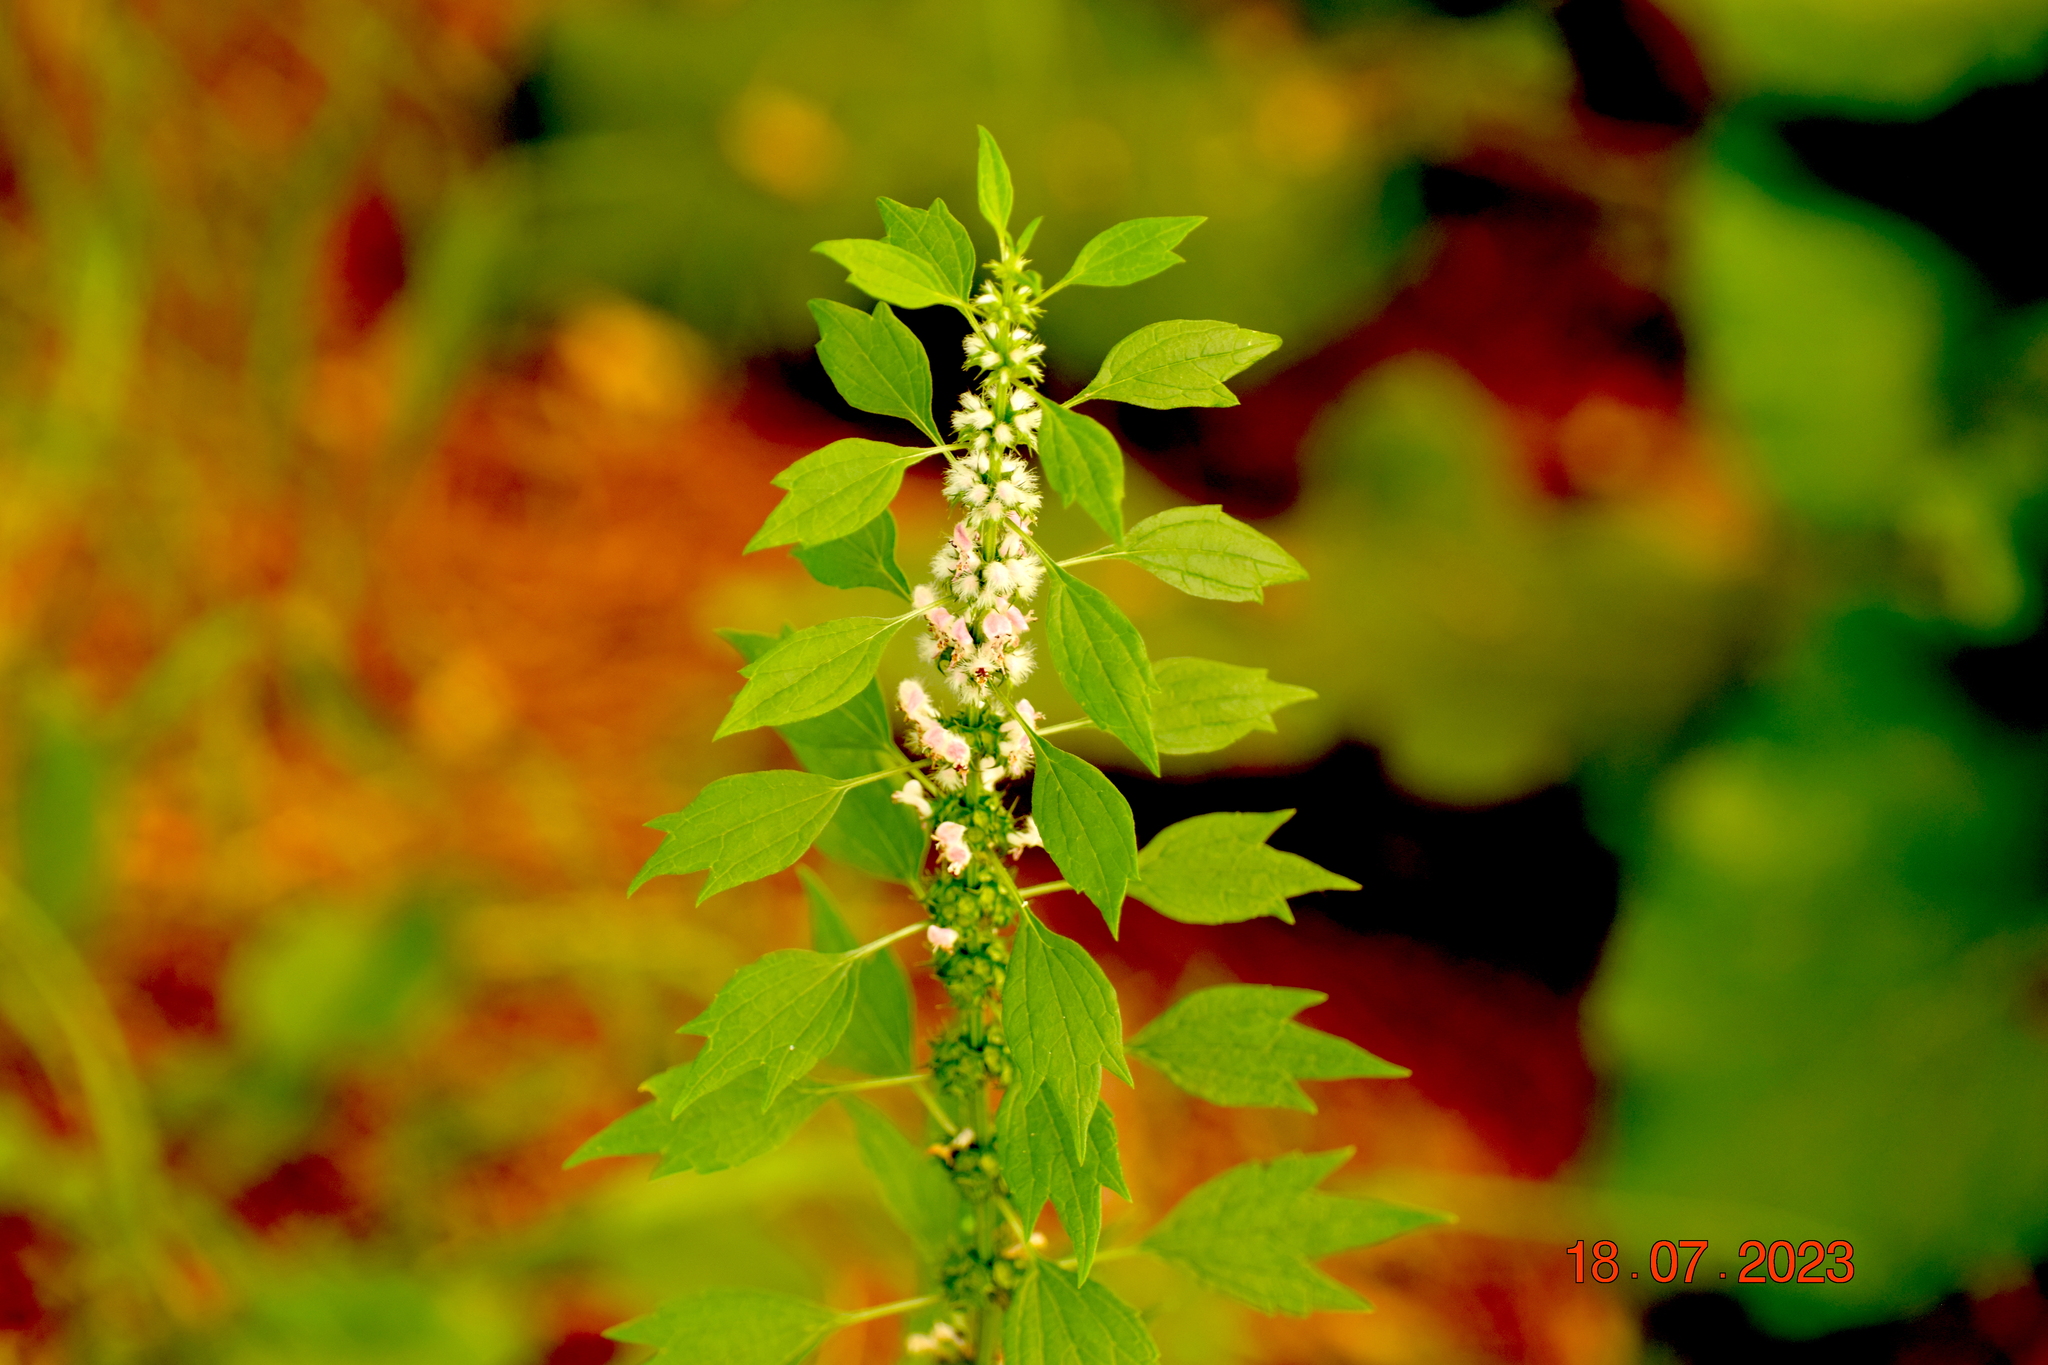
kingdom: Plantae
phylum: Tracheophyta
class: Magnoliopsida
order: Lamiales
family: Lamiaceae
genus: Leonurus
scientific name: Leonurus cardiaca
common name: Motherwort
